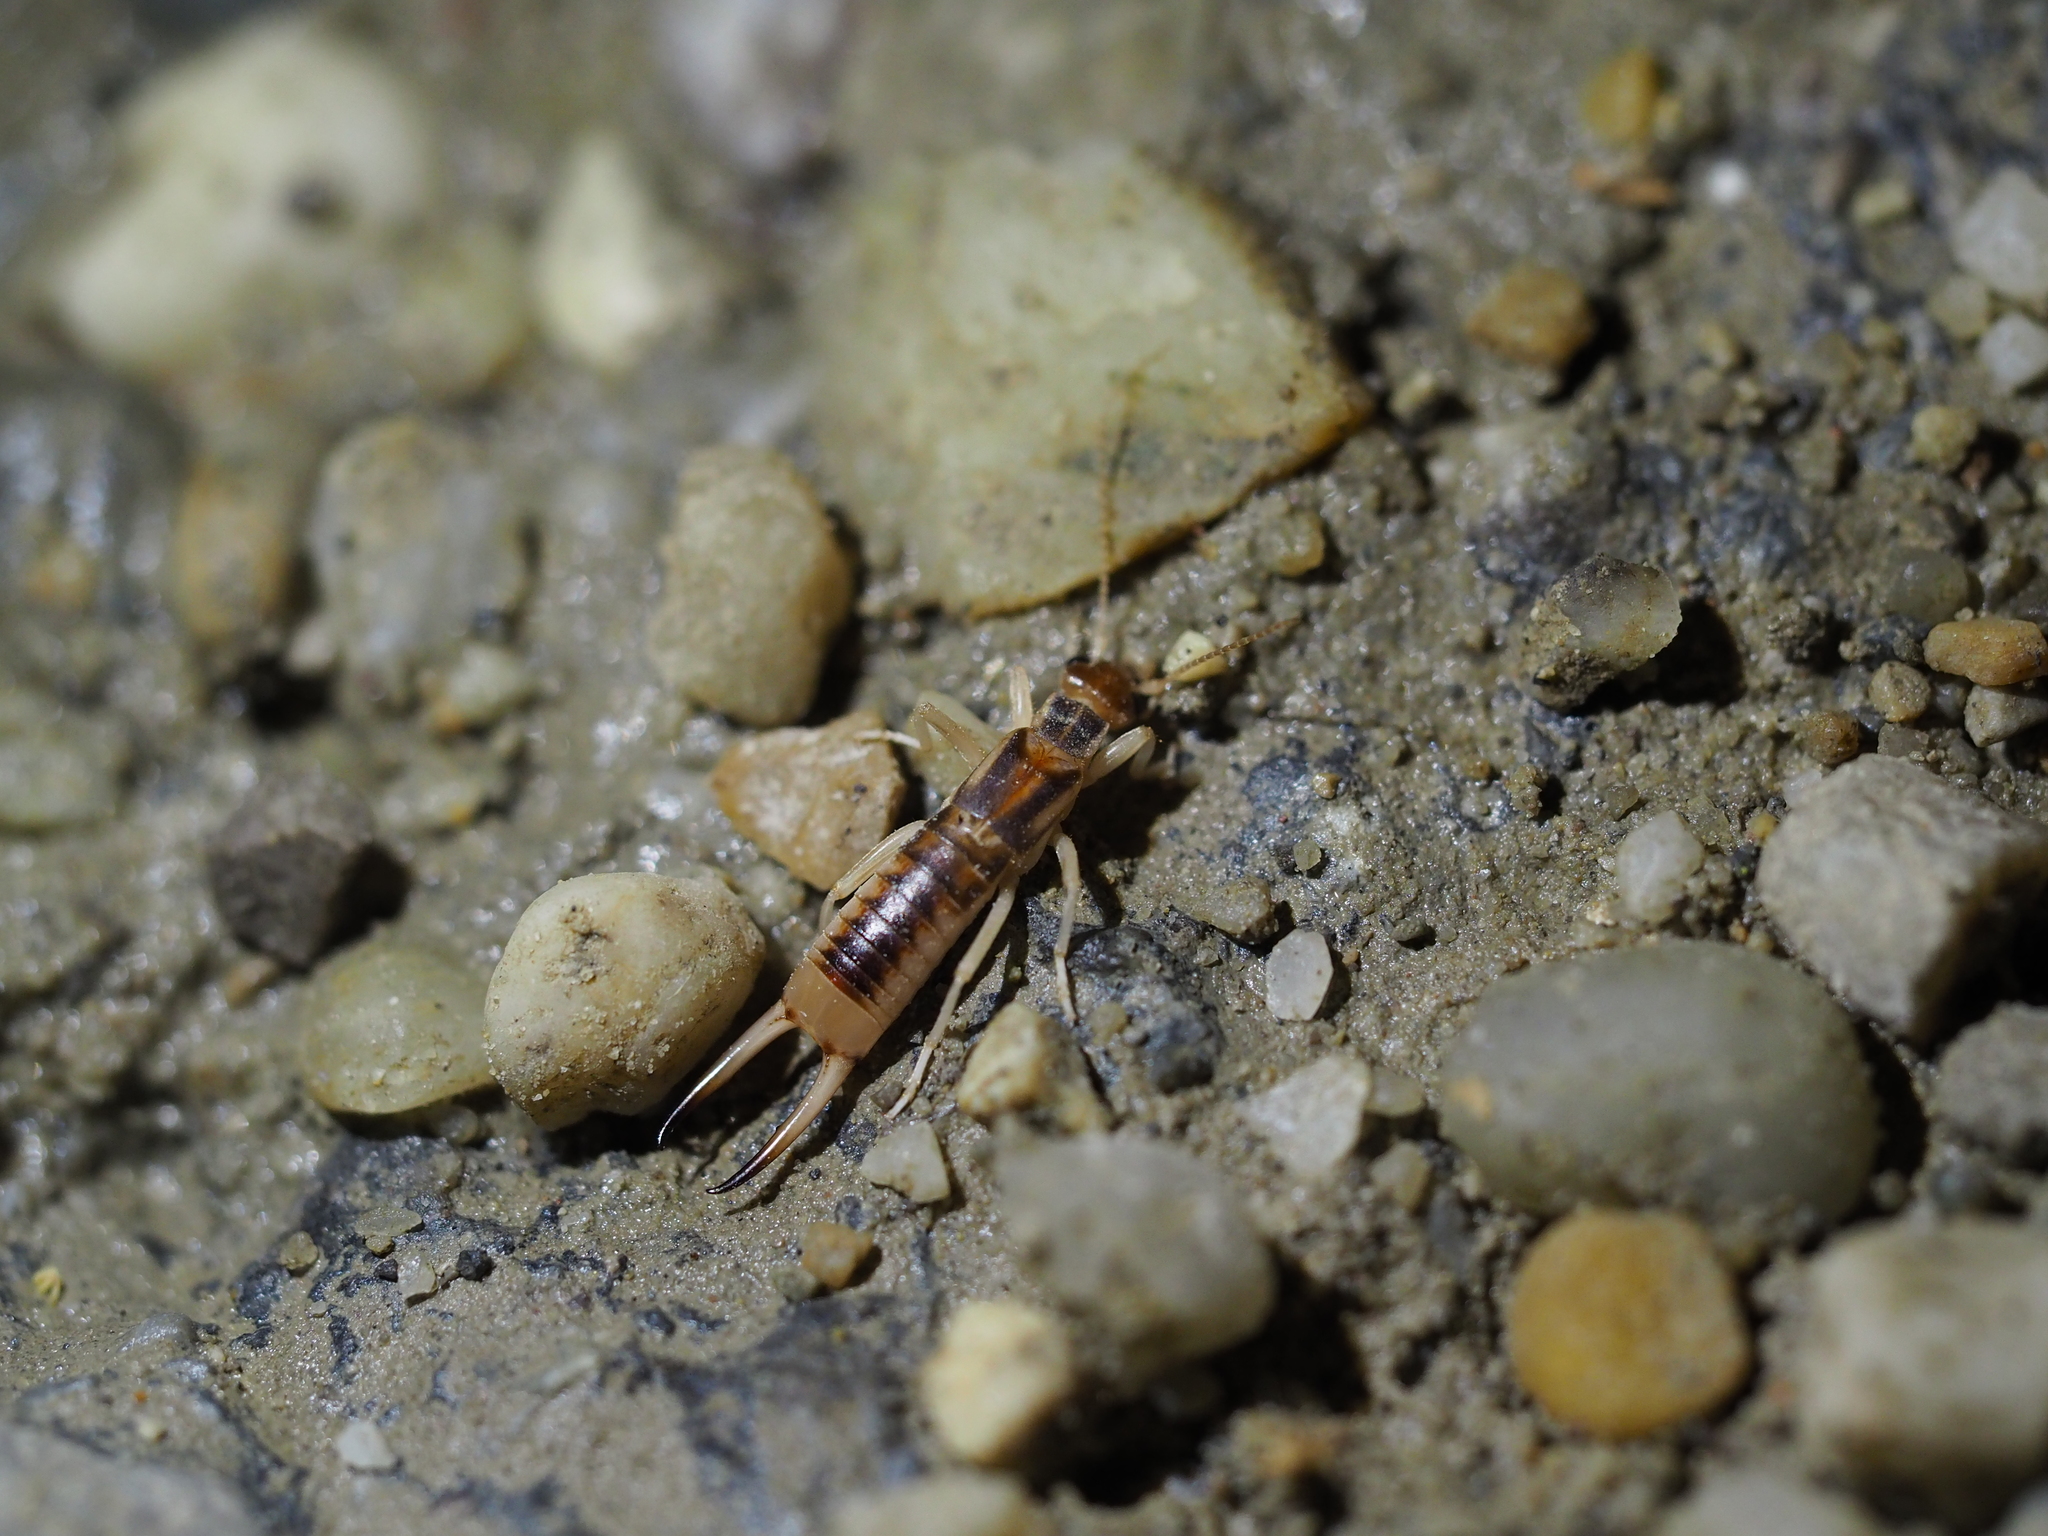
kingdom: Animalia
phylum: Arthropoda
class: Insecta
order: Dermaptera
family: Labiduridae
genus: Labidura
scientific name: Labidura riparia
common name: Striped earwig
